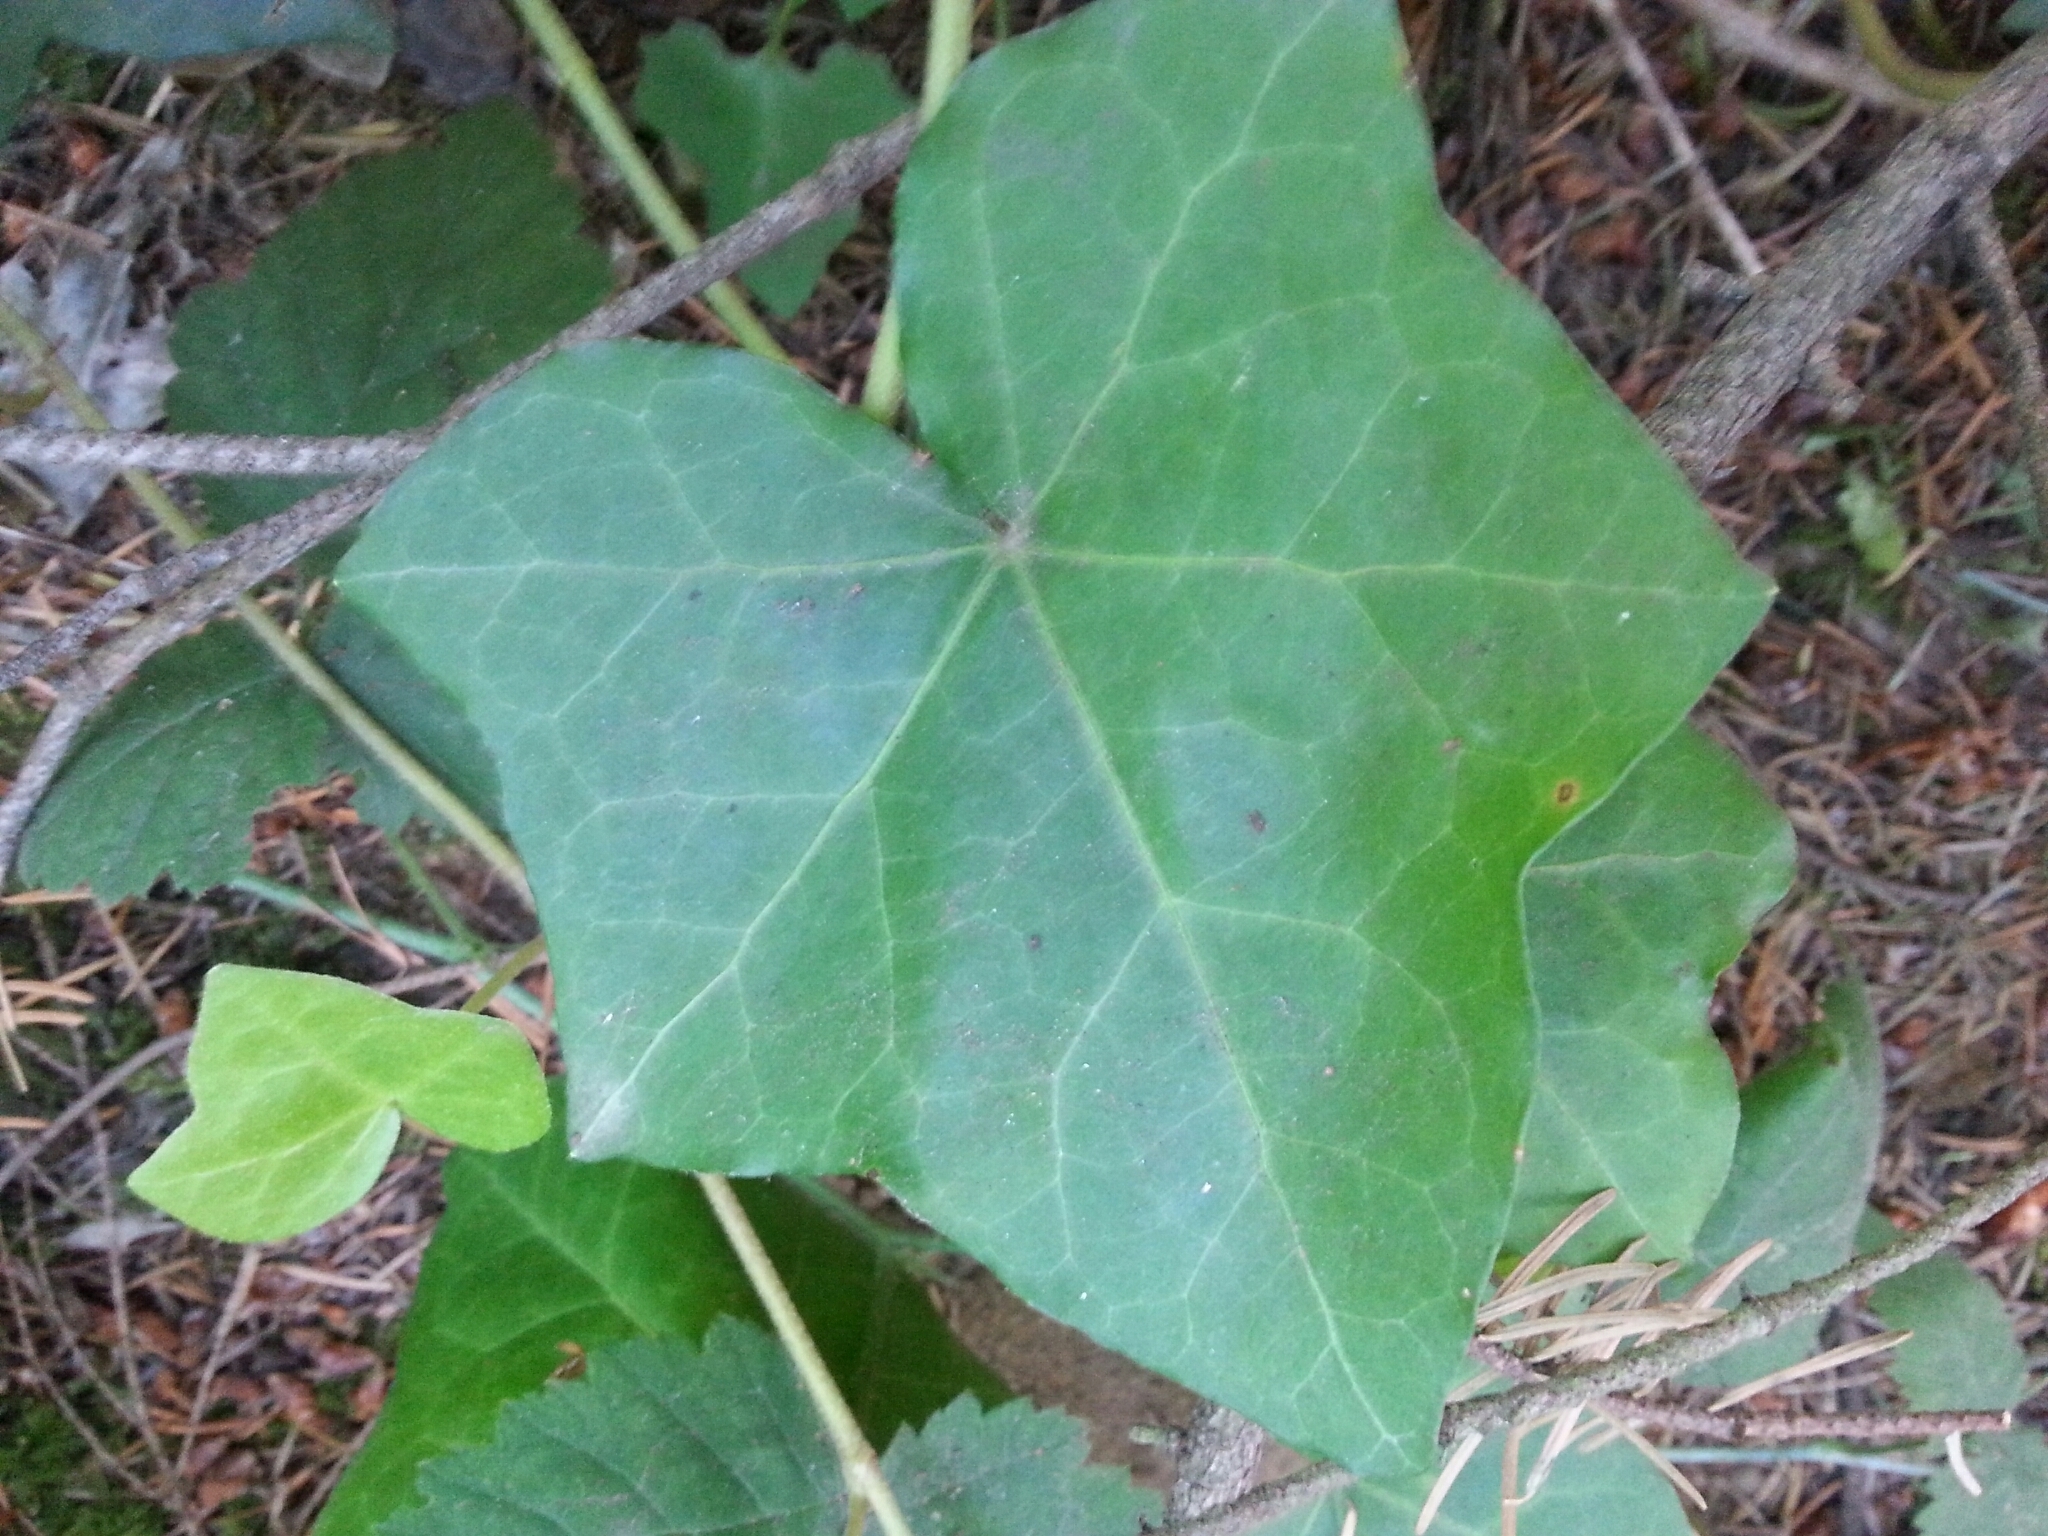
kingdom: Plantae
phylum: Tracheophyta
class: Magnoliopsida
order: Apiales
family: Araliaceae
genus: Hedera
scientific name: Hedera helix
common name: Ivy
